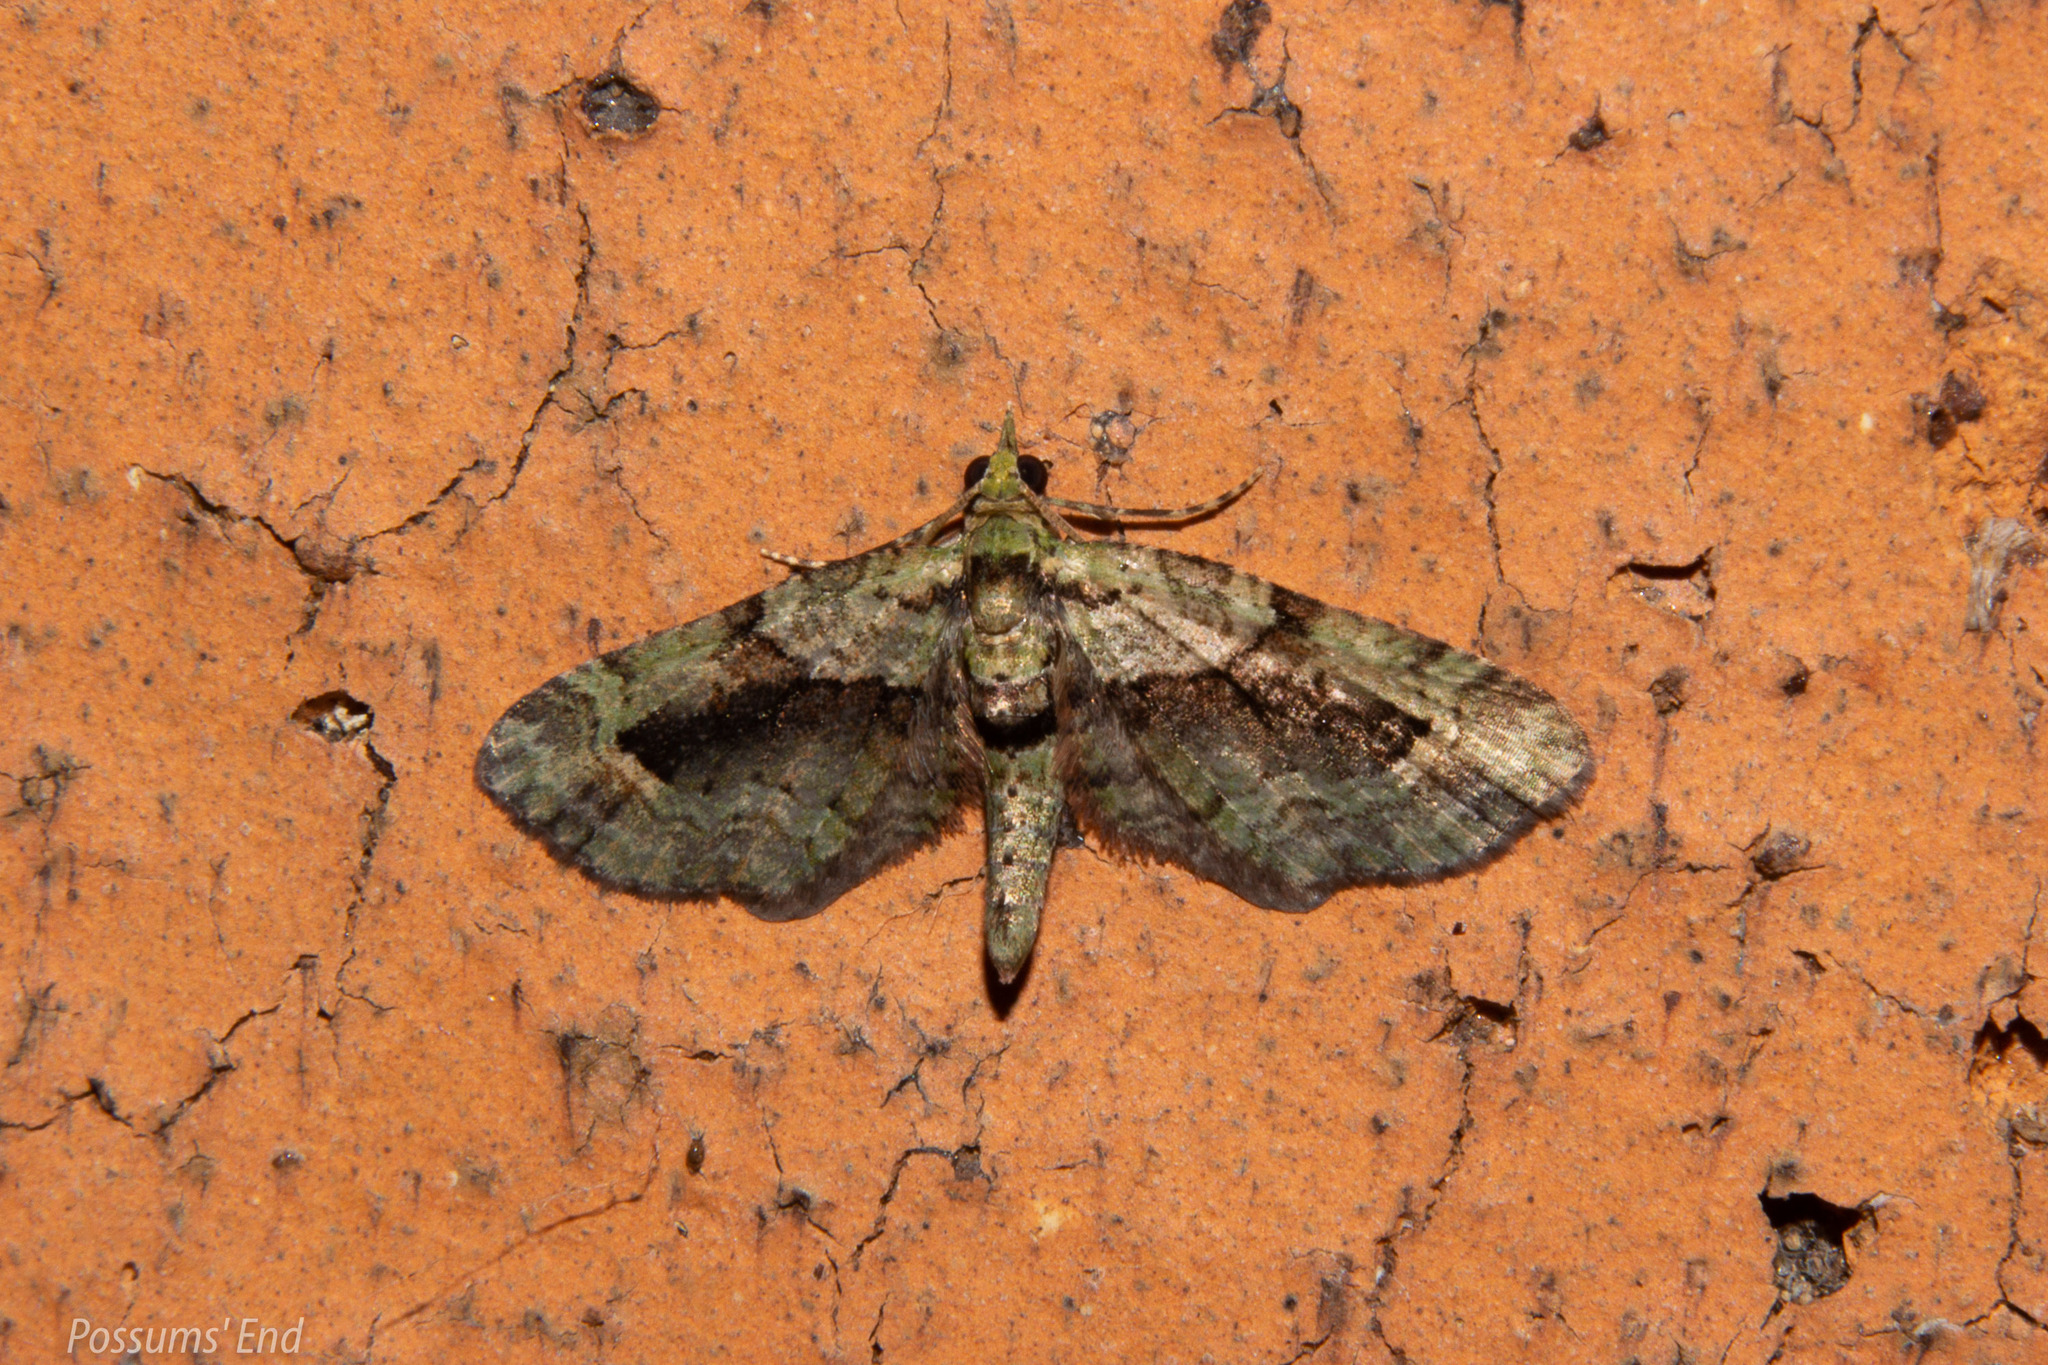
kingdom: Animalia
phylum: Arthropoda
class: Insecta
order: Lepidoptera
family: Geometridae
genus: Pasiphila
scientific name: Pasiphila suffusa
